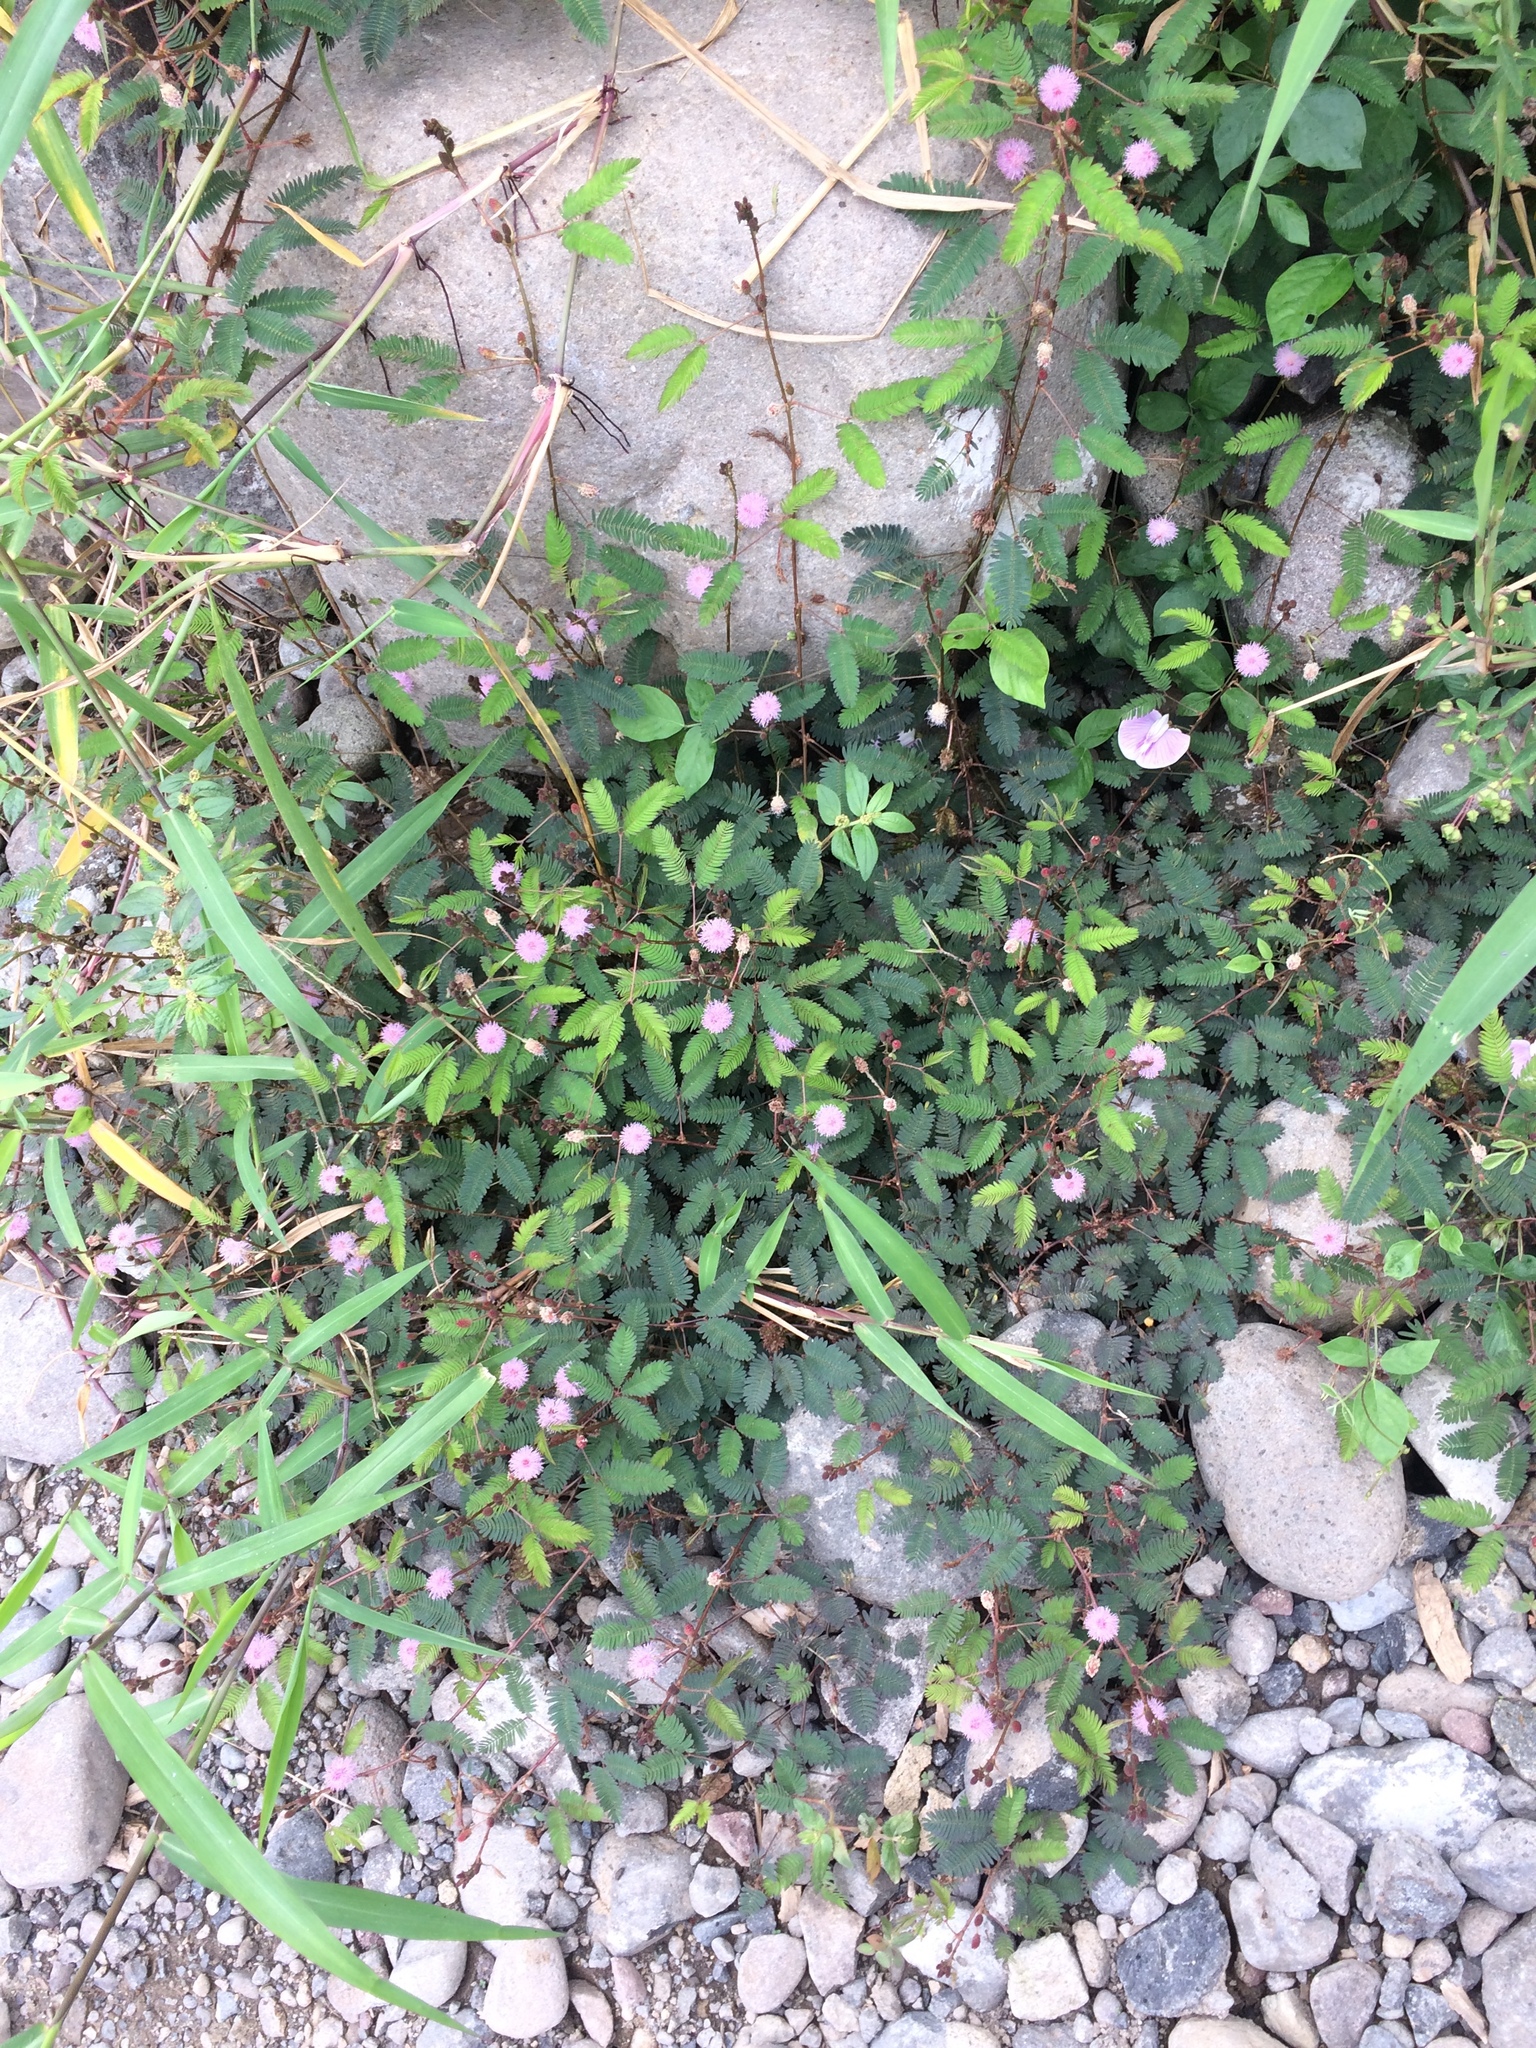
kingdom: Plantae
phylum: Tracheophyta
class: Magnoliopsida
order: Fabales
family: Fabaceae
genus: Mimosa
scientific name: Mimosa pudica
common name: Sensitive plant
